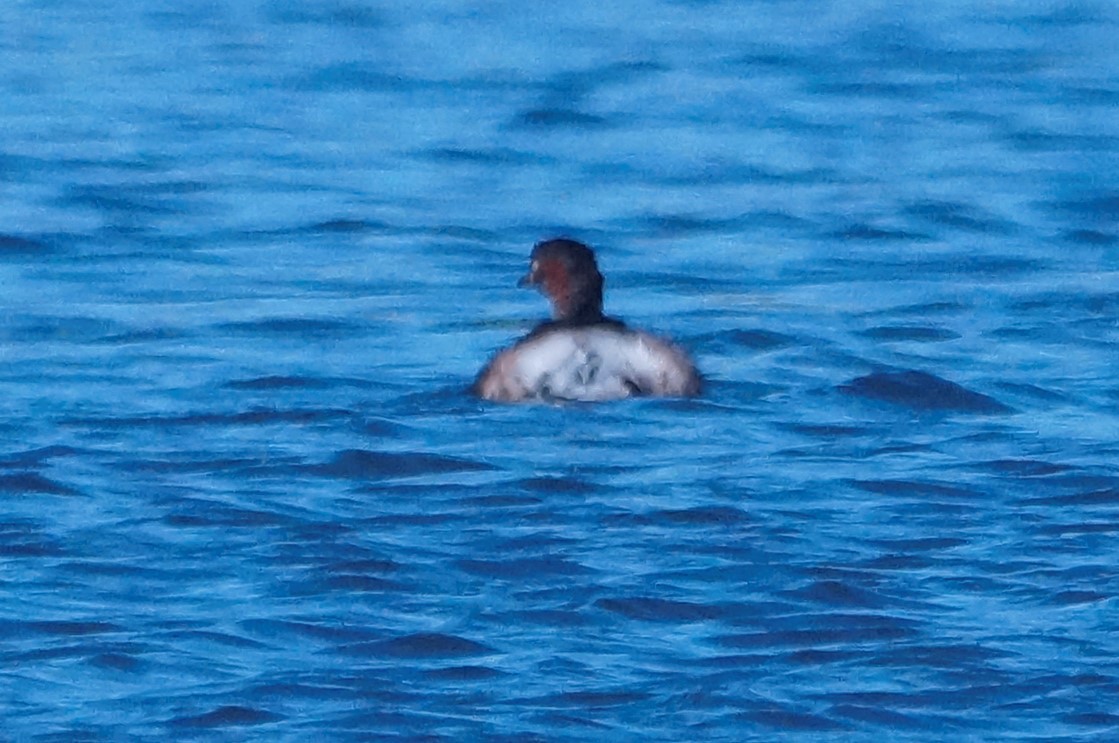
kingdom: Animalia
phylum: Chordata
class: Aves
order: Podicipediformes
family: Podicipedidae
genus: Tachybaptus
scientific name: Tachybaptus novaehollandiae
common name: Australasian grebe
